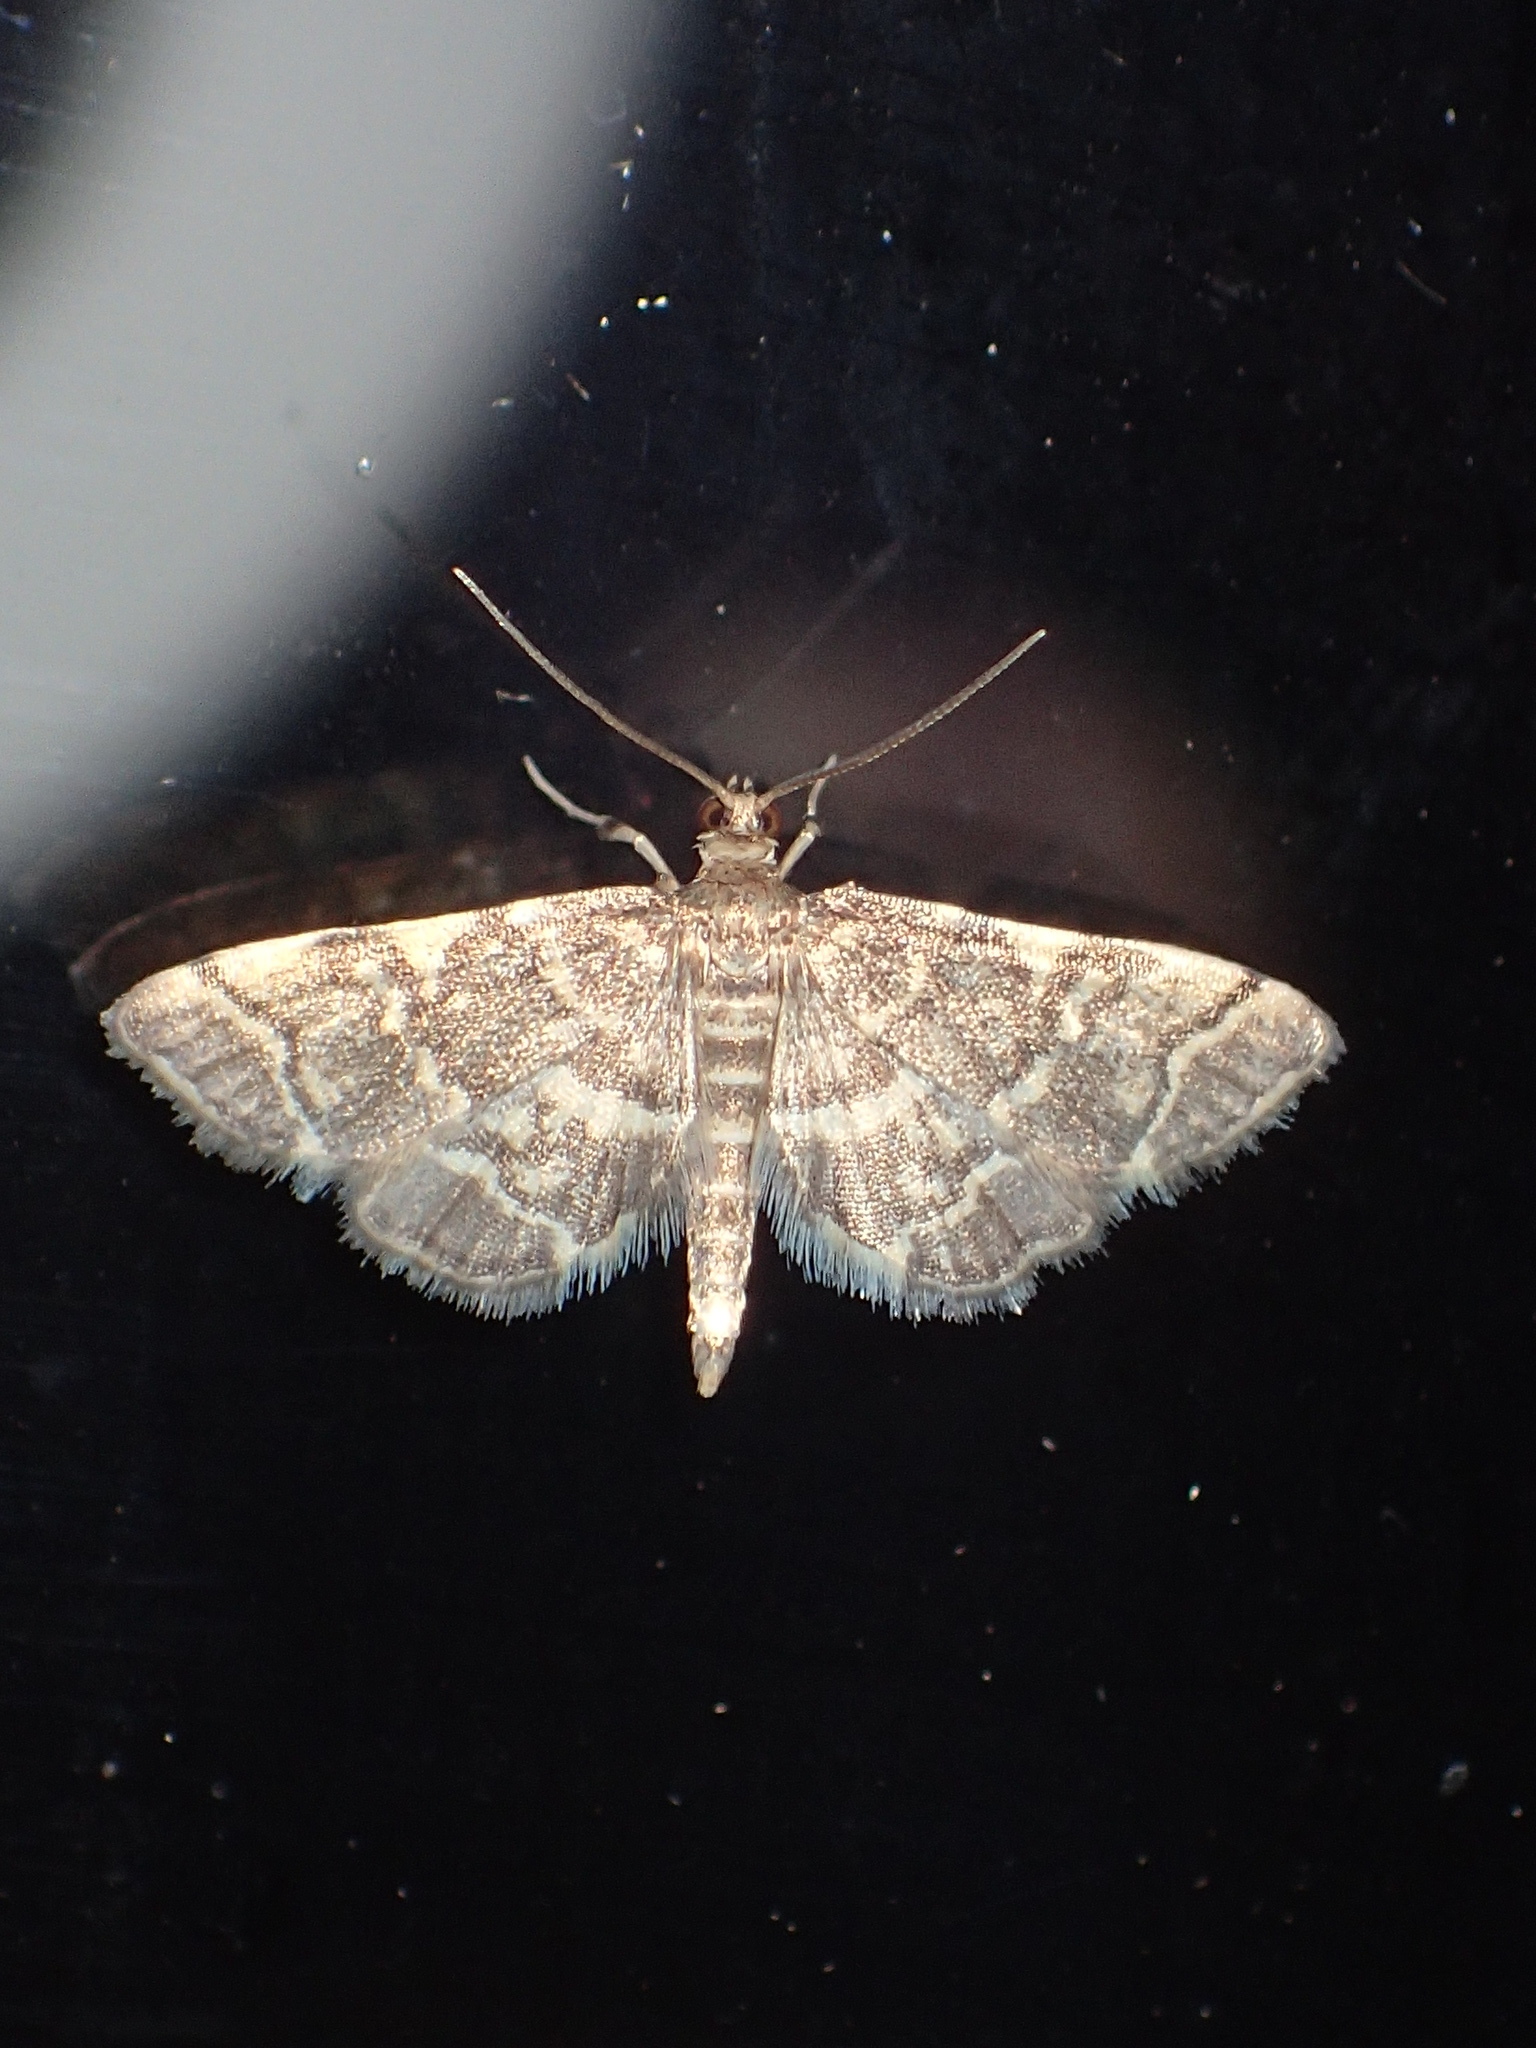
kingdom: Animalia
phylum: Arthropoda
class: Insecta
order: Lepidoptera
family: Crambidae
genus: Anageshna
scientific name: Anageshna primordialis
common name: Yellow-spotted webworm moth
